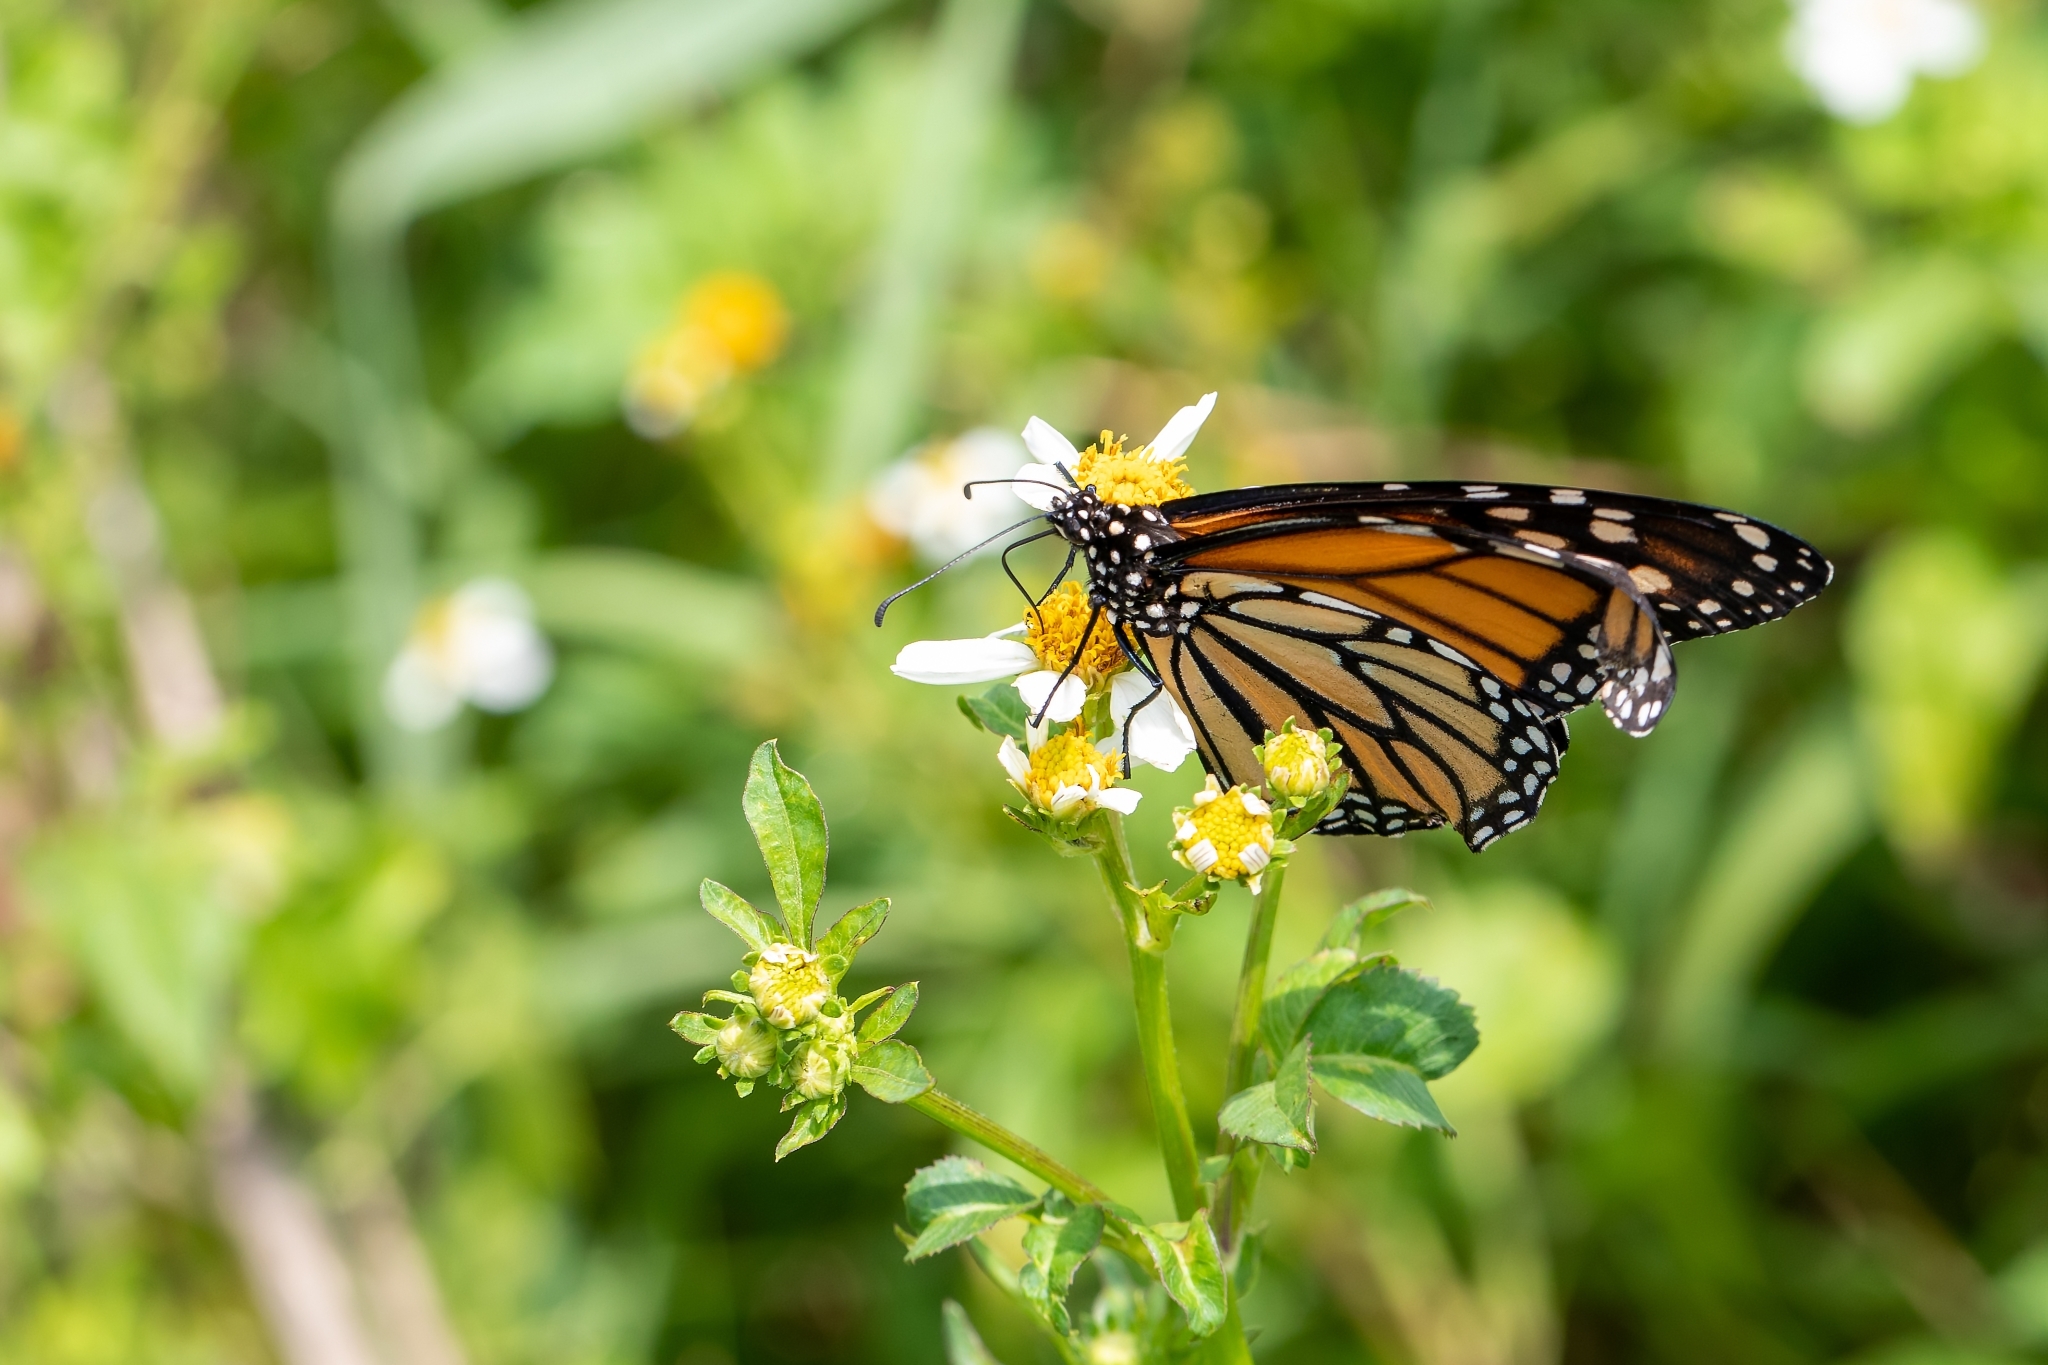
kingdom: Animalia
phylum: Arthropoda
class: Insecta
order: Lepidoptera
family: Nymphalidae
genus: Danaus
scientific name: Danaus plexippus
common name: Monarch
